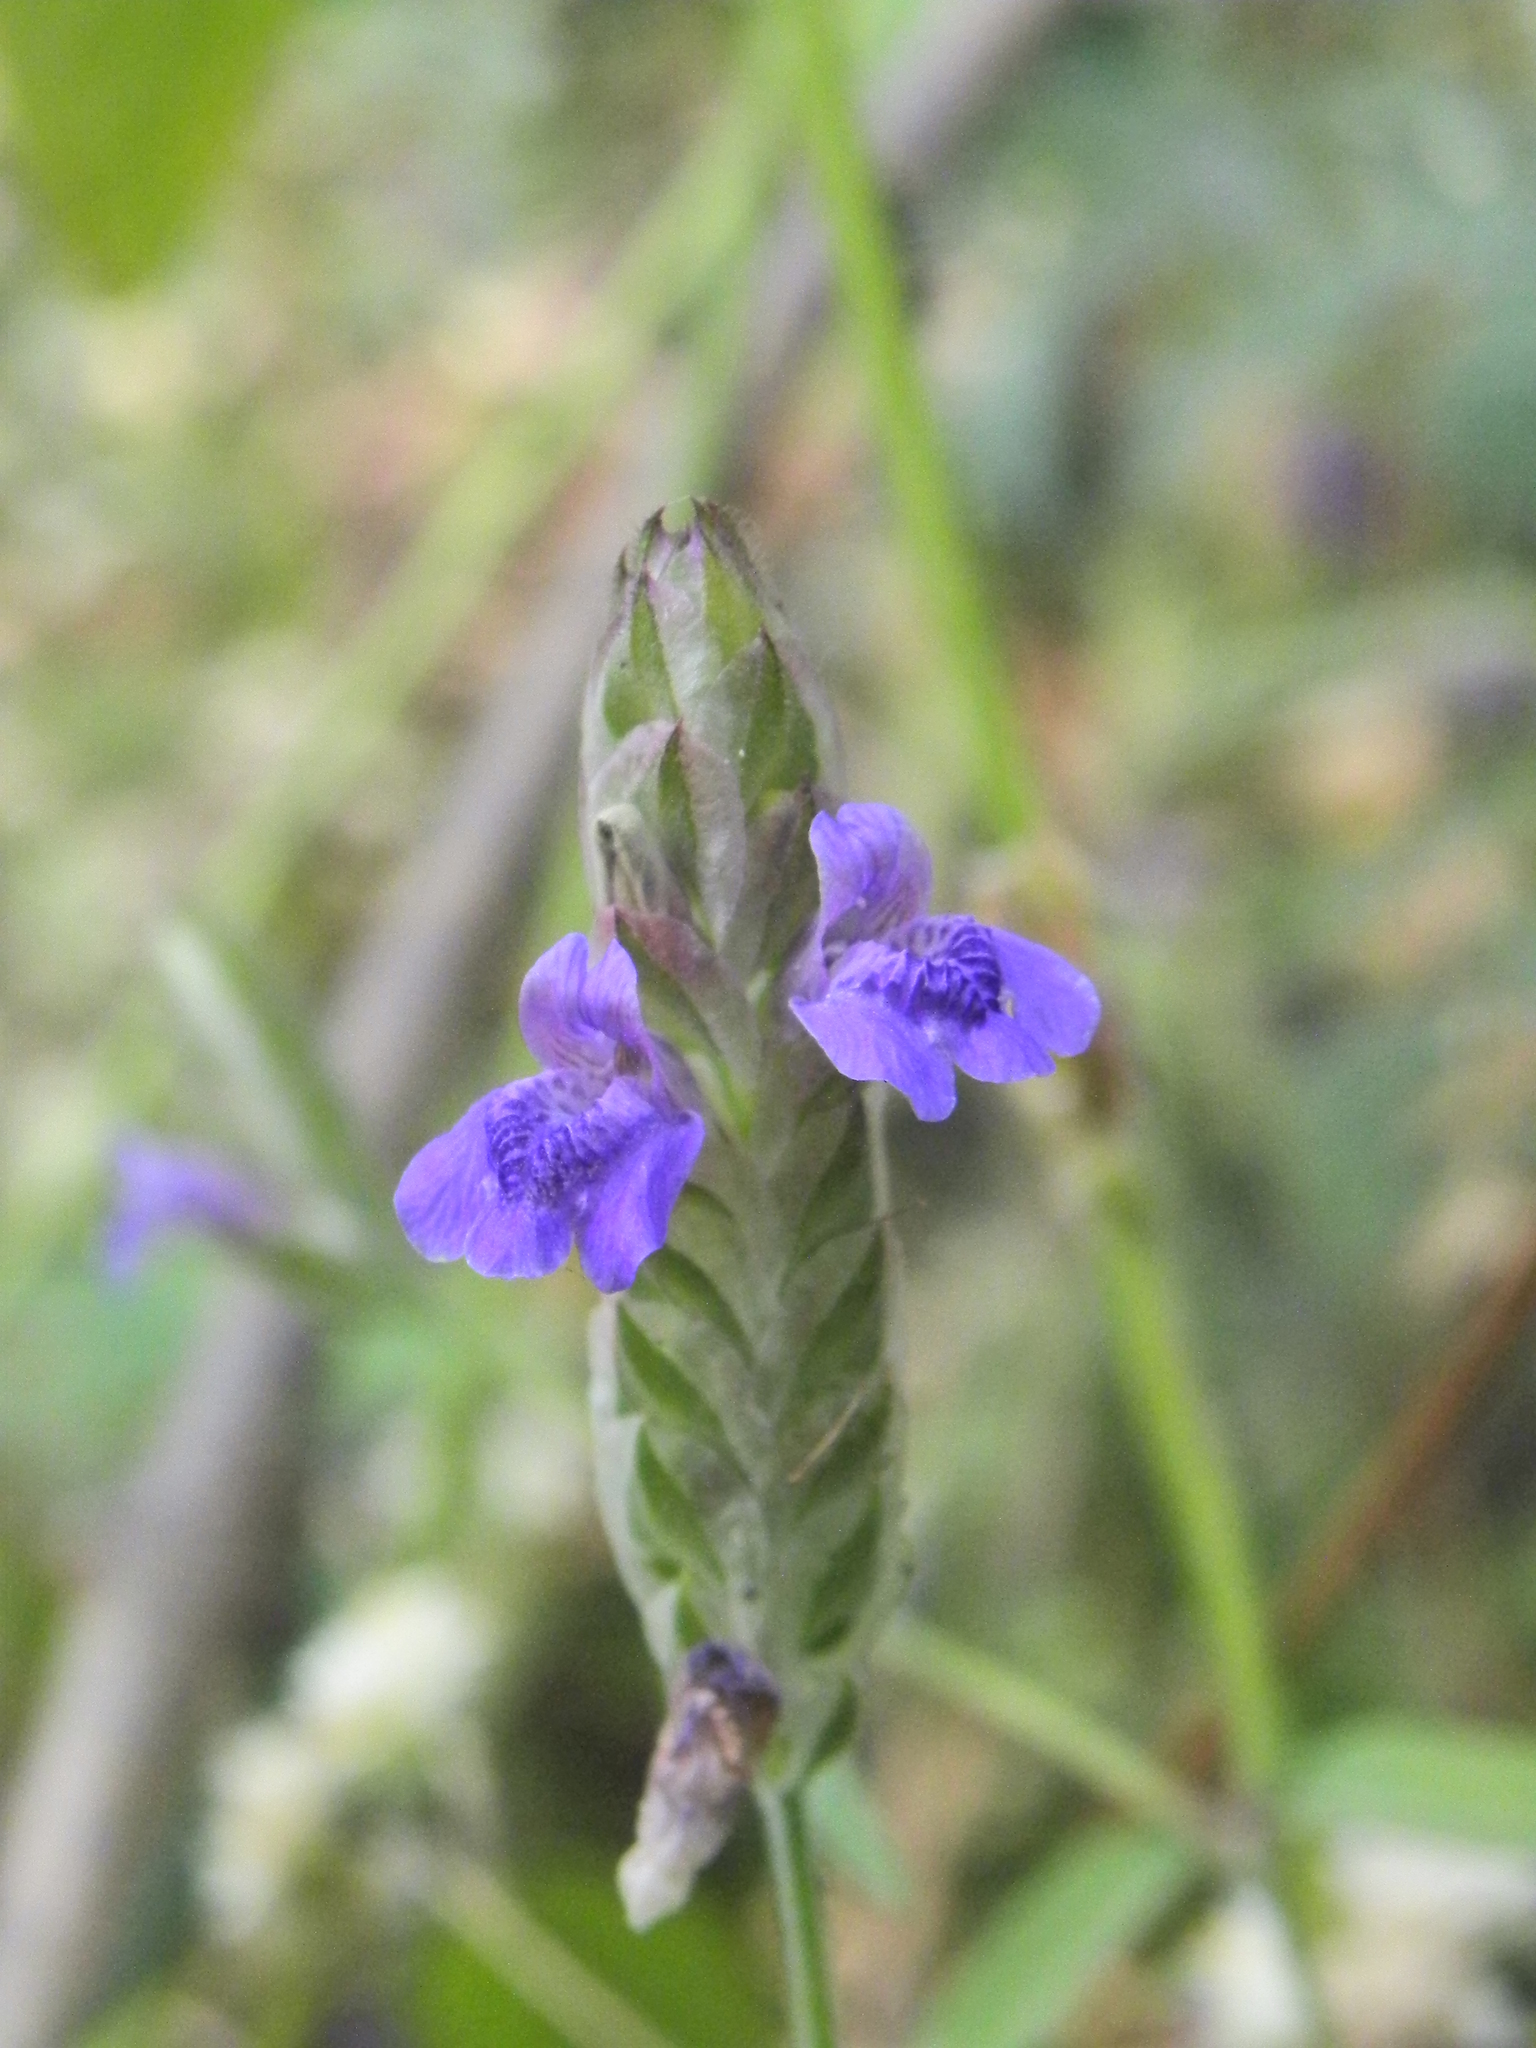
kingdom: Plantae
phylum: Tracheophyta
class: Magnoliopsida
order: Lamiales
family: Acanthaceae
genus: Rungia
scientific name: Rungia elegans
